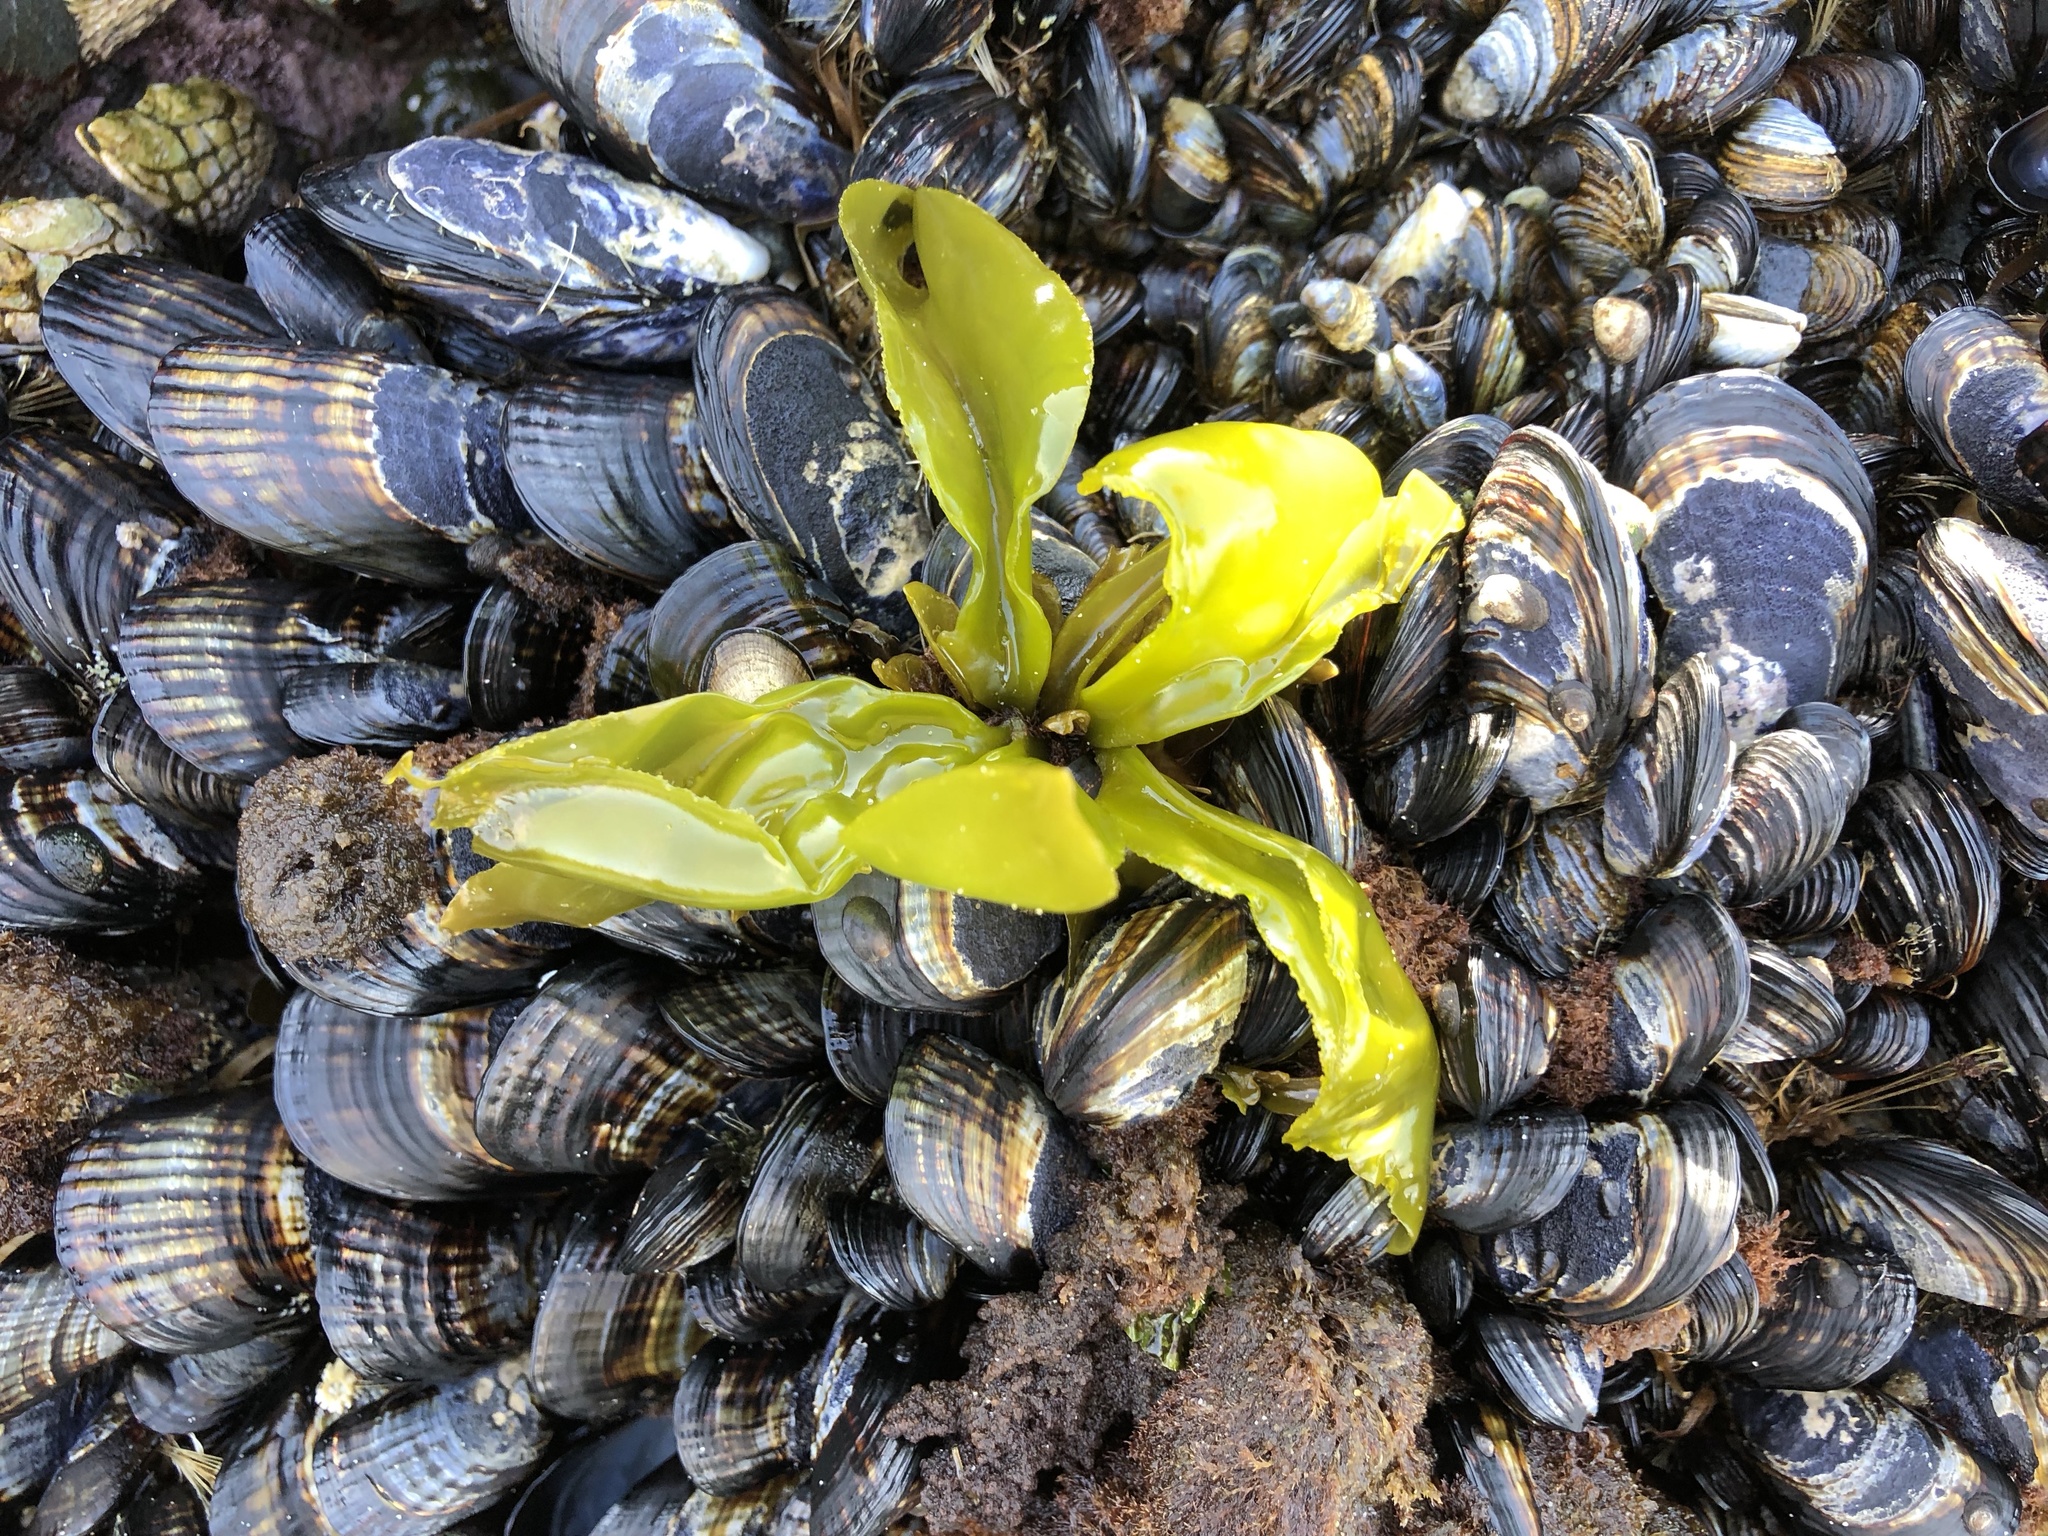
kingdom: Plantae
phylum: Rhodophyta
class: Florideophyceae
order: Gigartinales
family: Gigartinaceae
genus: Mazzaella
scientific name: Mazzaella flaccida
